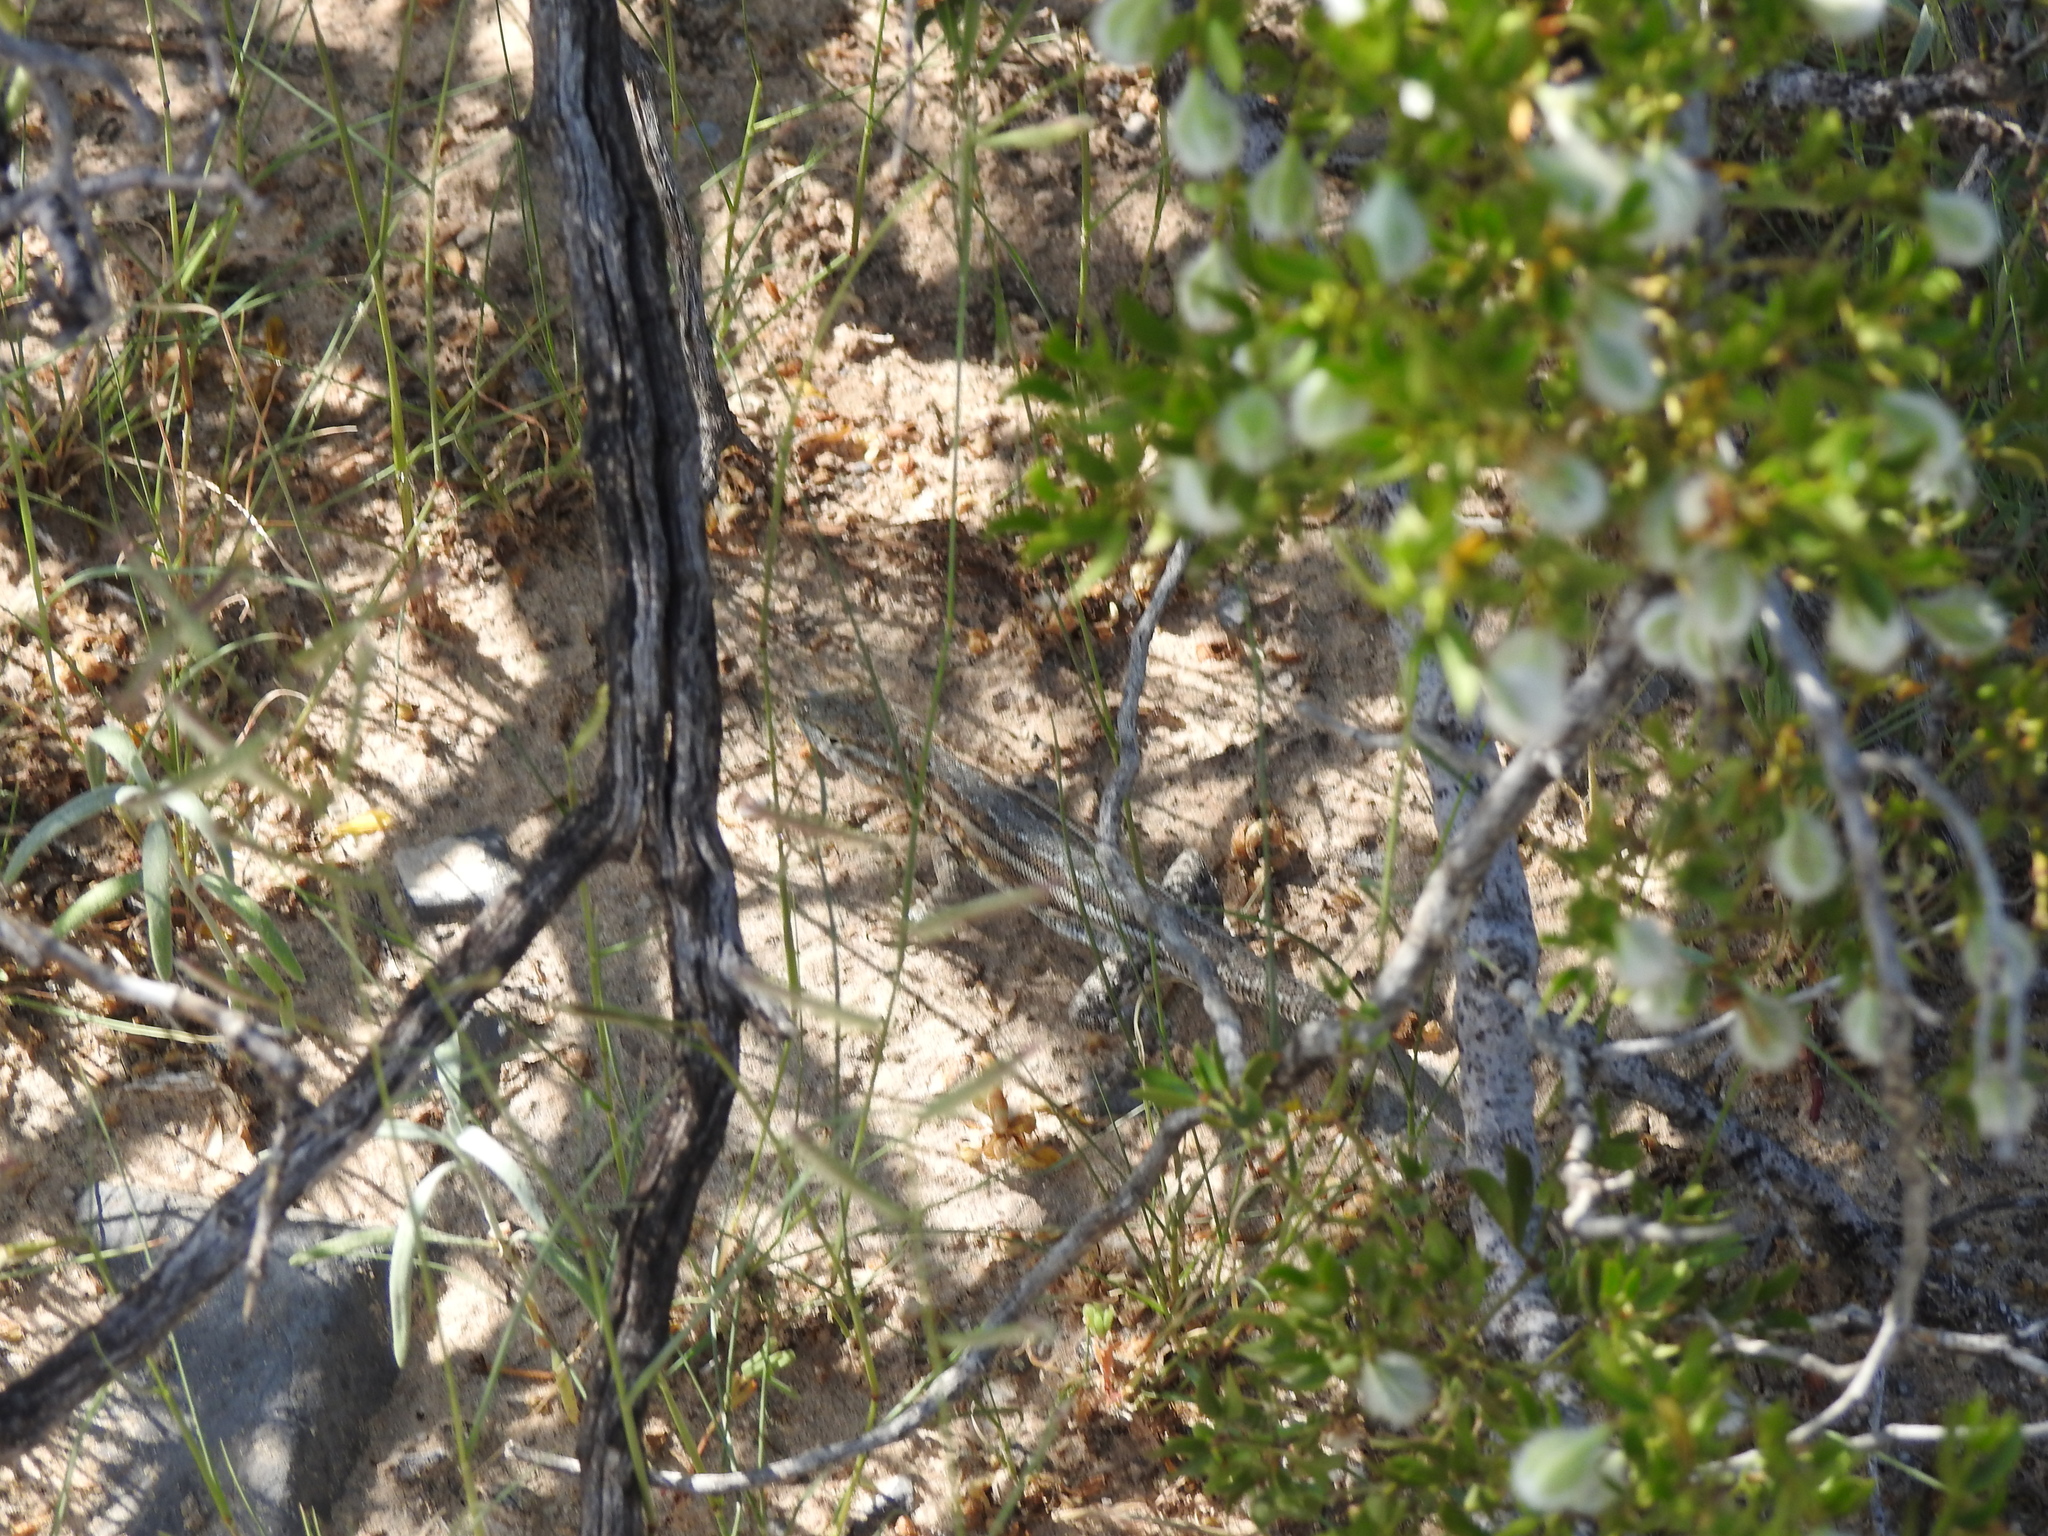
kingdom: Animalia
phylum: Chordata
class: Squamata
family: Phrynosomatidae
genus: Uta
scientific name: Uta stansburiana
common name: Side-blotched lizard
